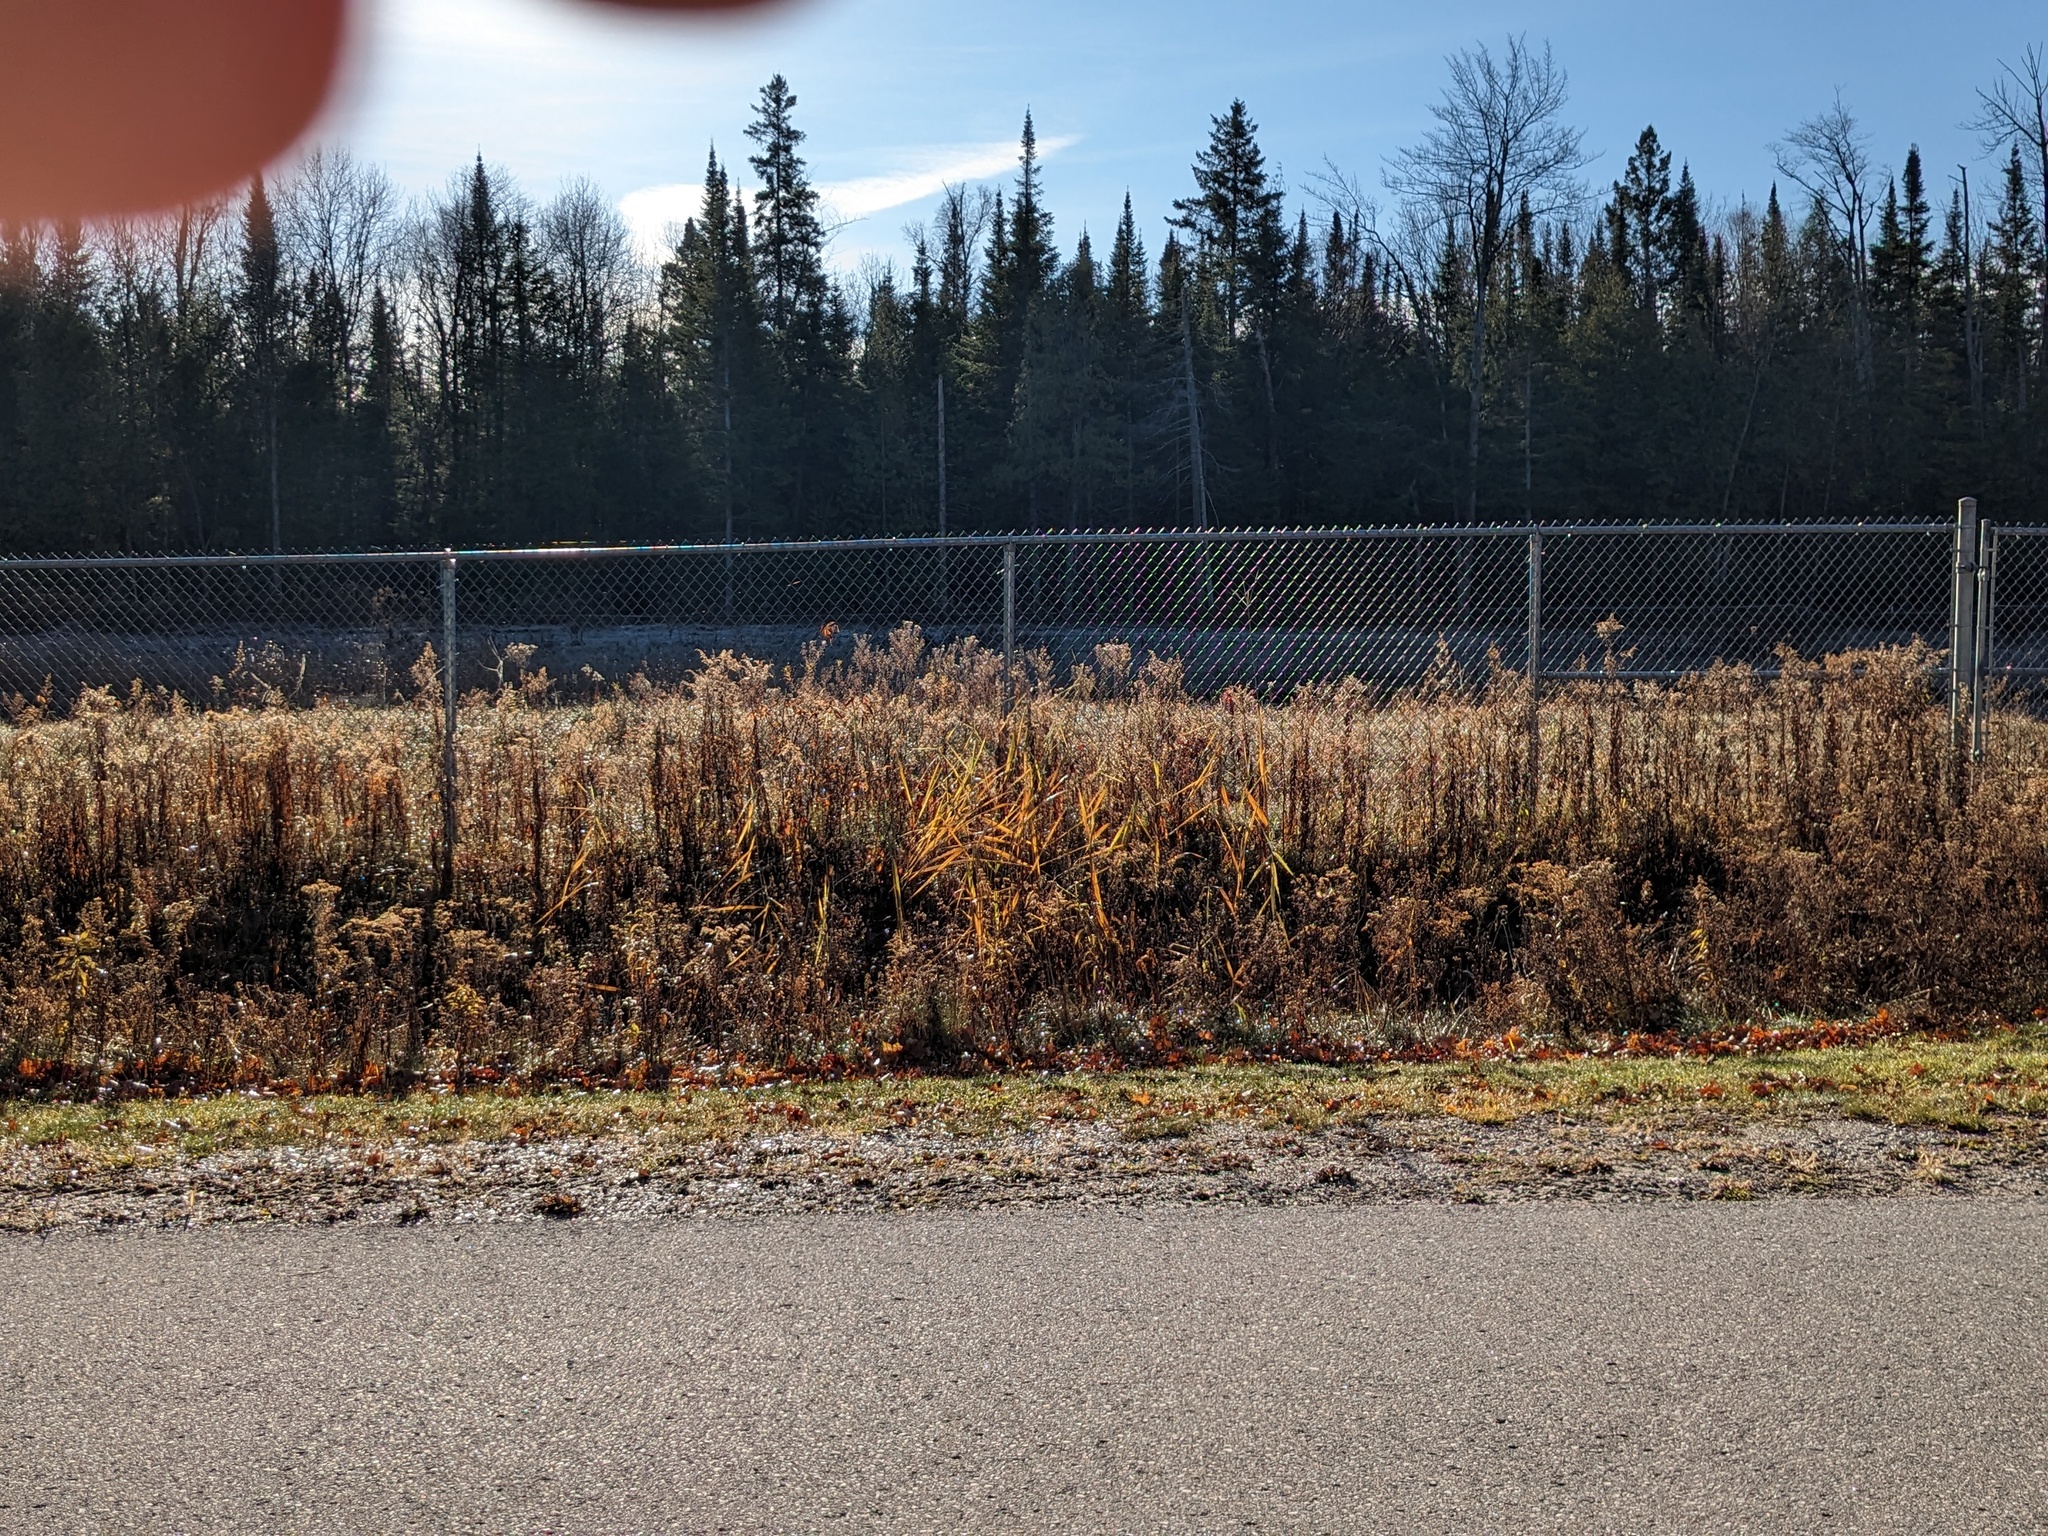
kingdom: Plantae
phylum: Tracheophyta
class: Liliopsida
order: Poales
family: Poaceae
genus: Phragmites
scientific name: Phragmites australis
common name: Common reed
